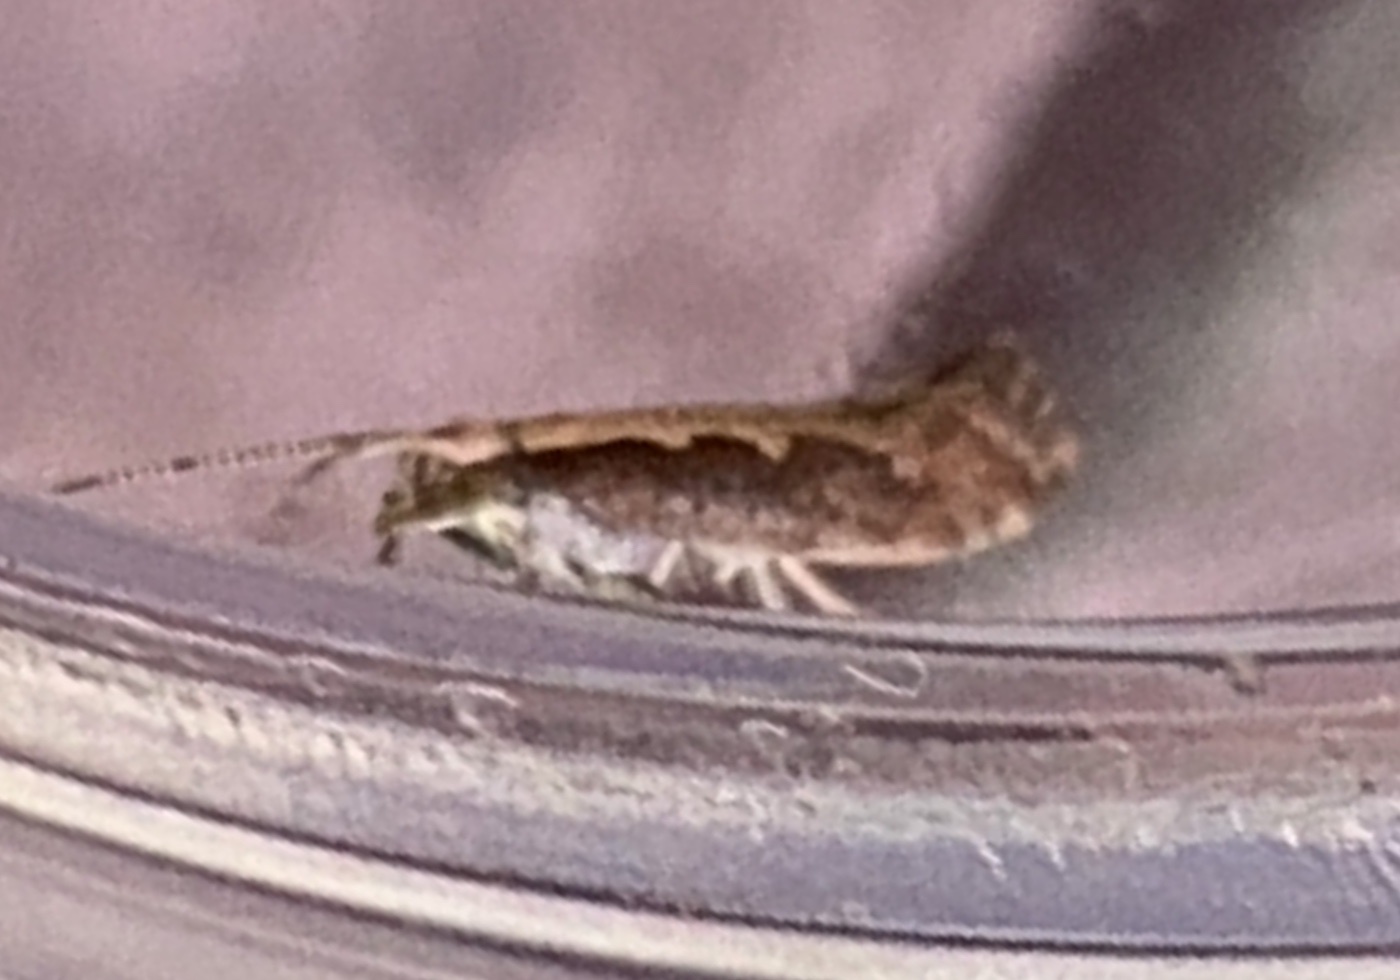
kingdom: Animalia
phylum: Arthropoda
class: Insecta
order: Lepidoptera
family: Plutellidae
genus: Plutella
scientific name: Plutella xylostella
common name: Diamond-back moth
